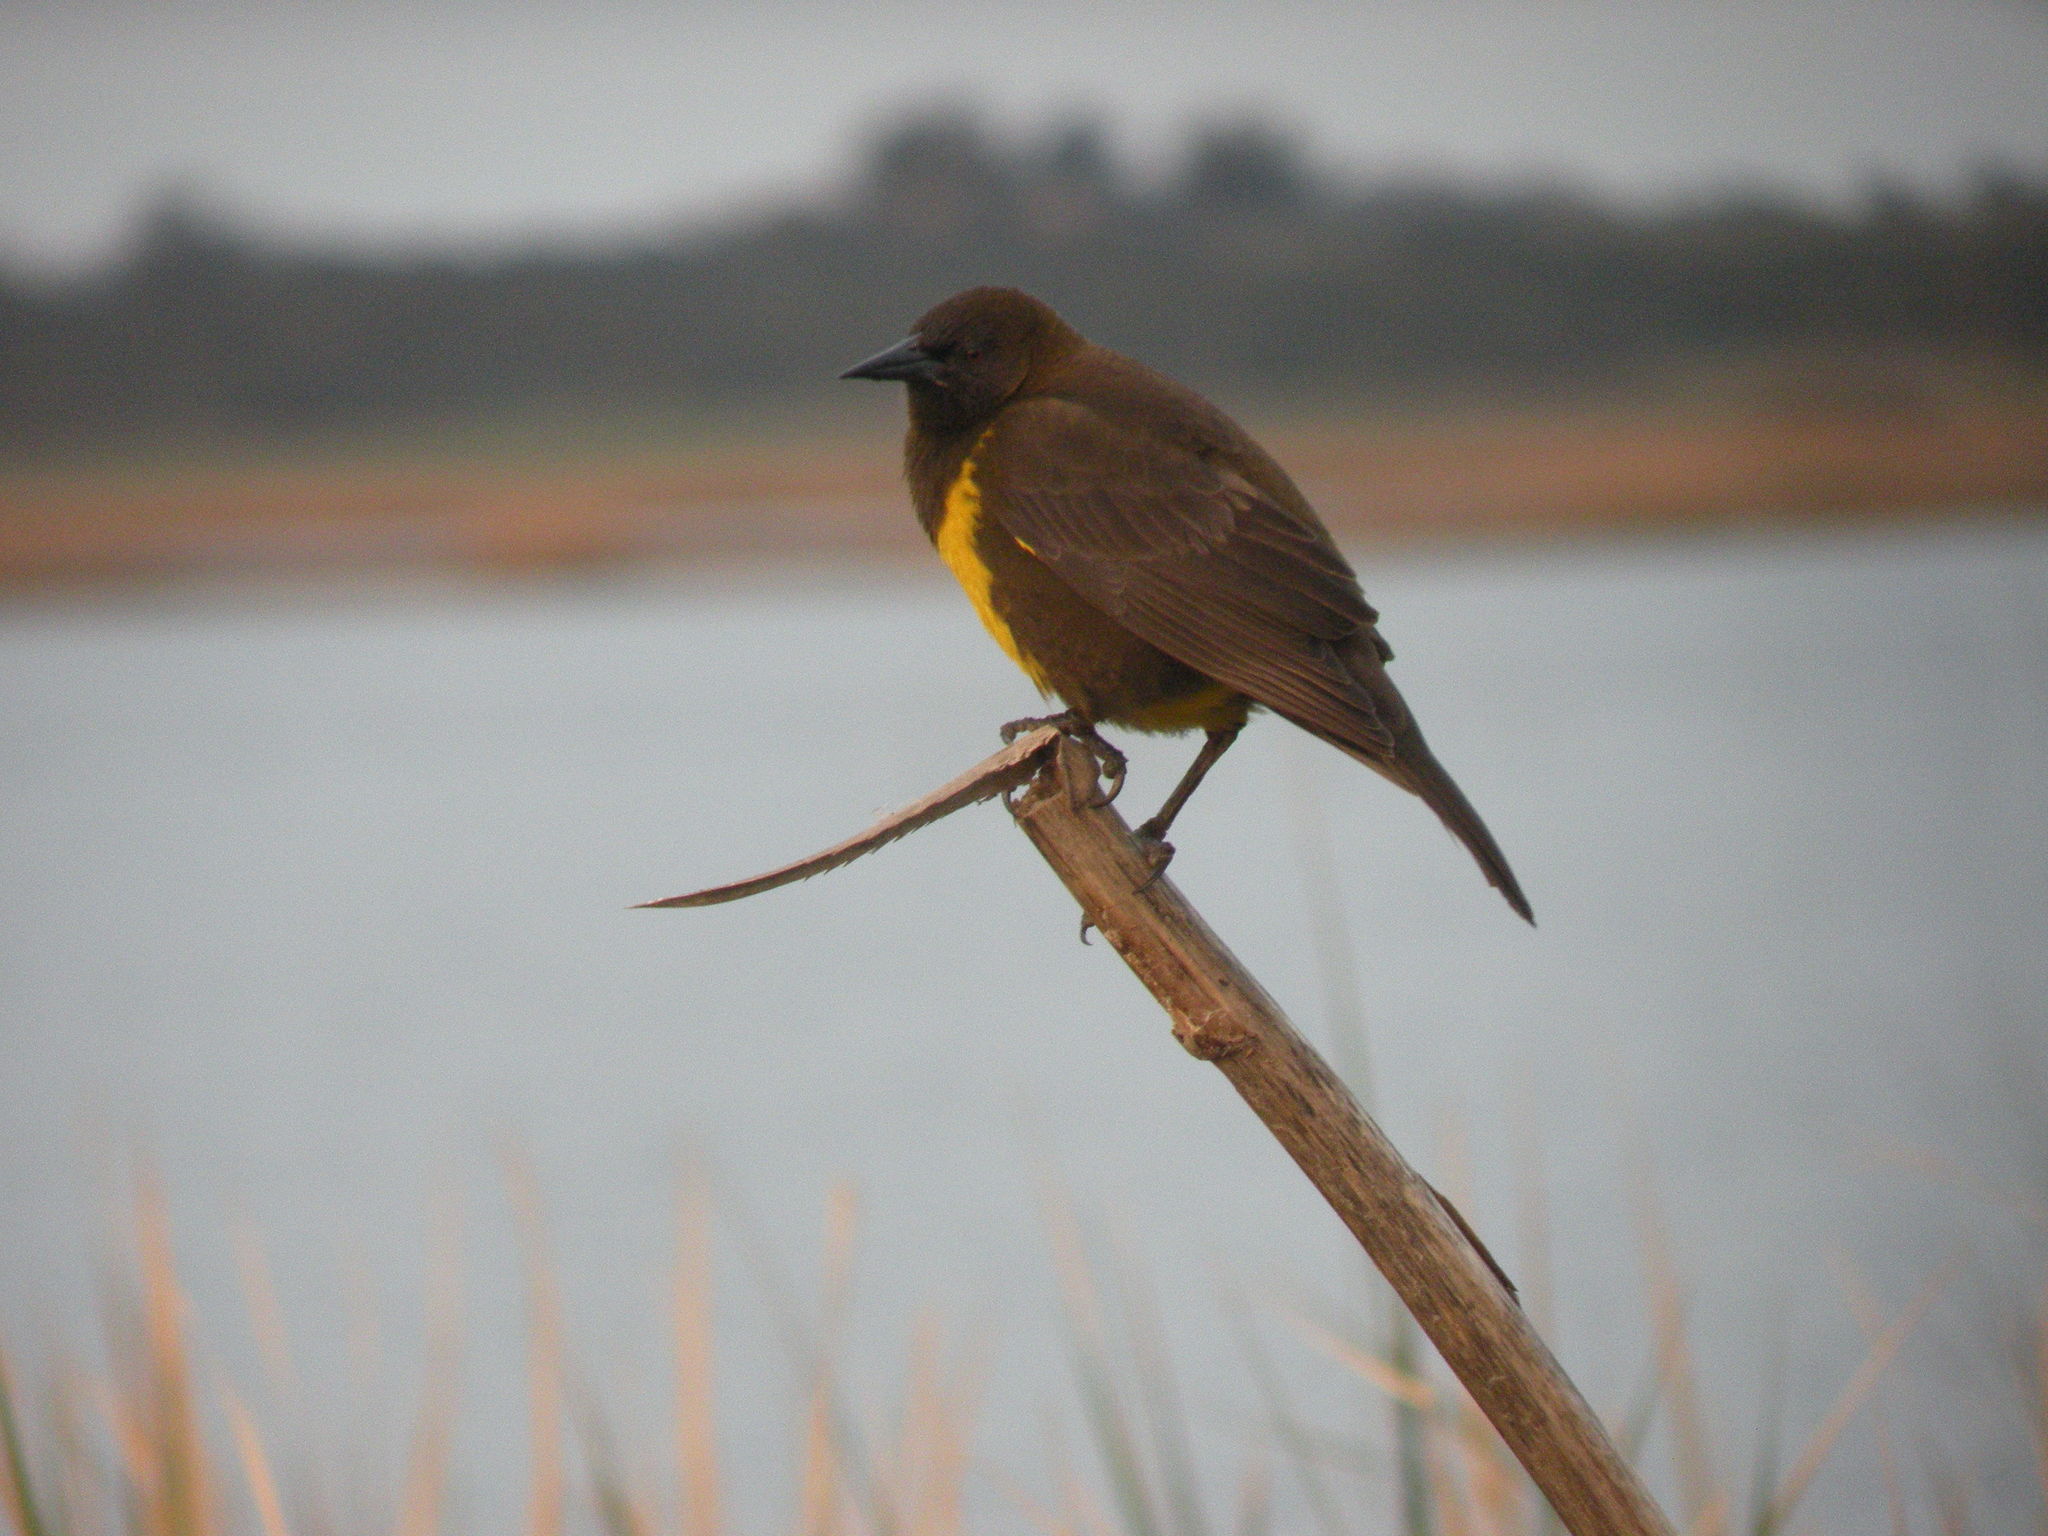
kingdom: Animalia
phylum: Chordata
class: Aves
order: Passeriformes
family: Icteridae
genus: Pseudoleistes
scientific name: Pseudoleistes virescens
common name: Brown-and-yellow marshbird
